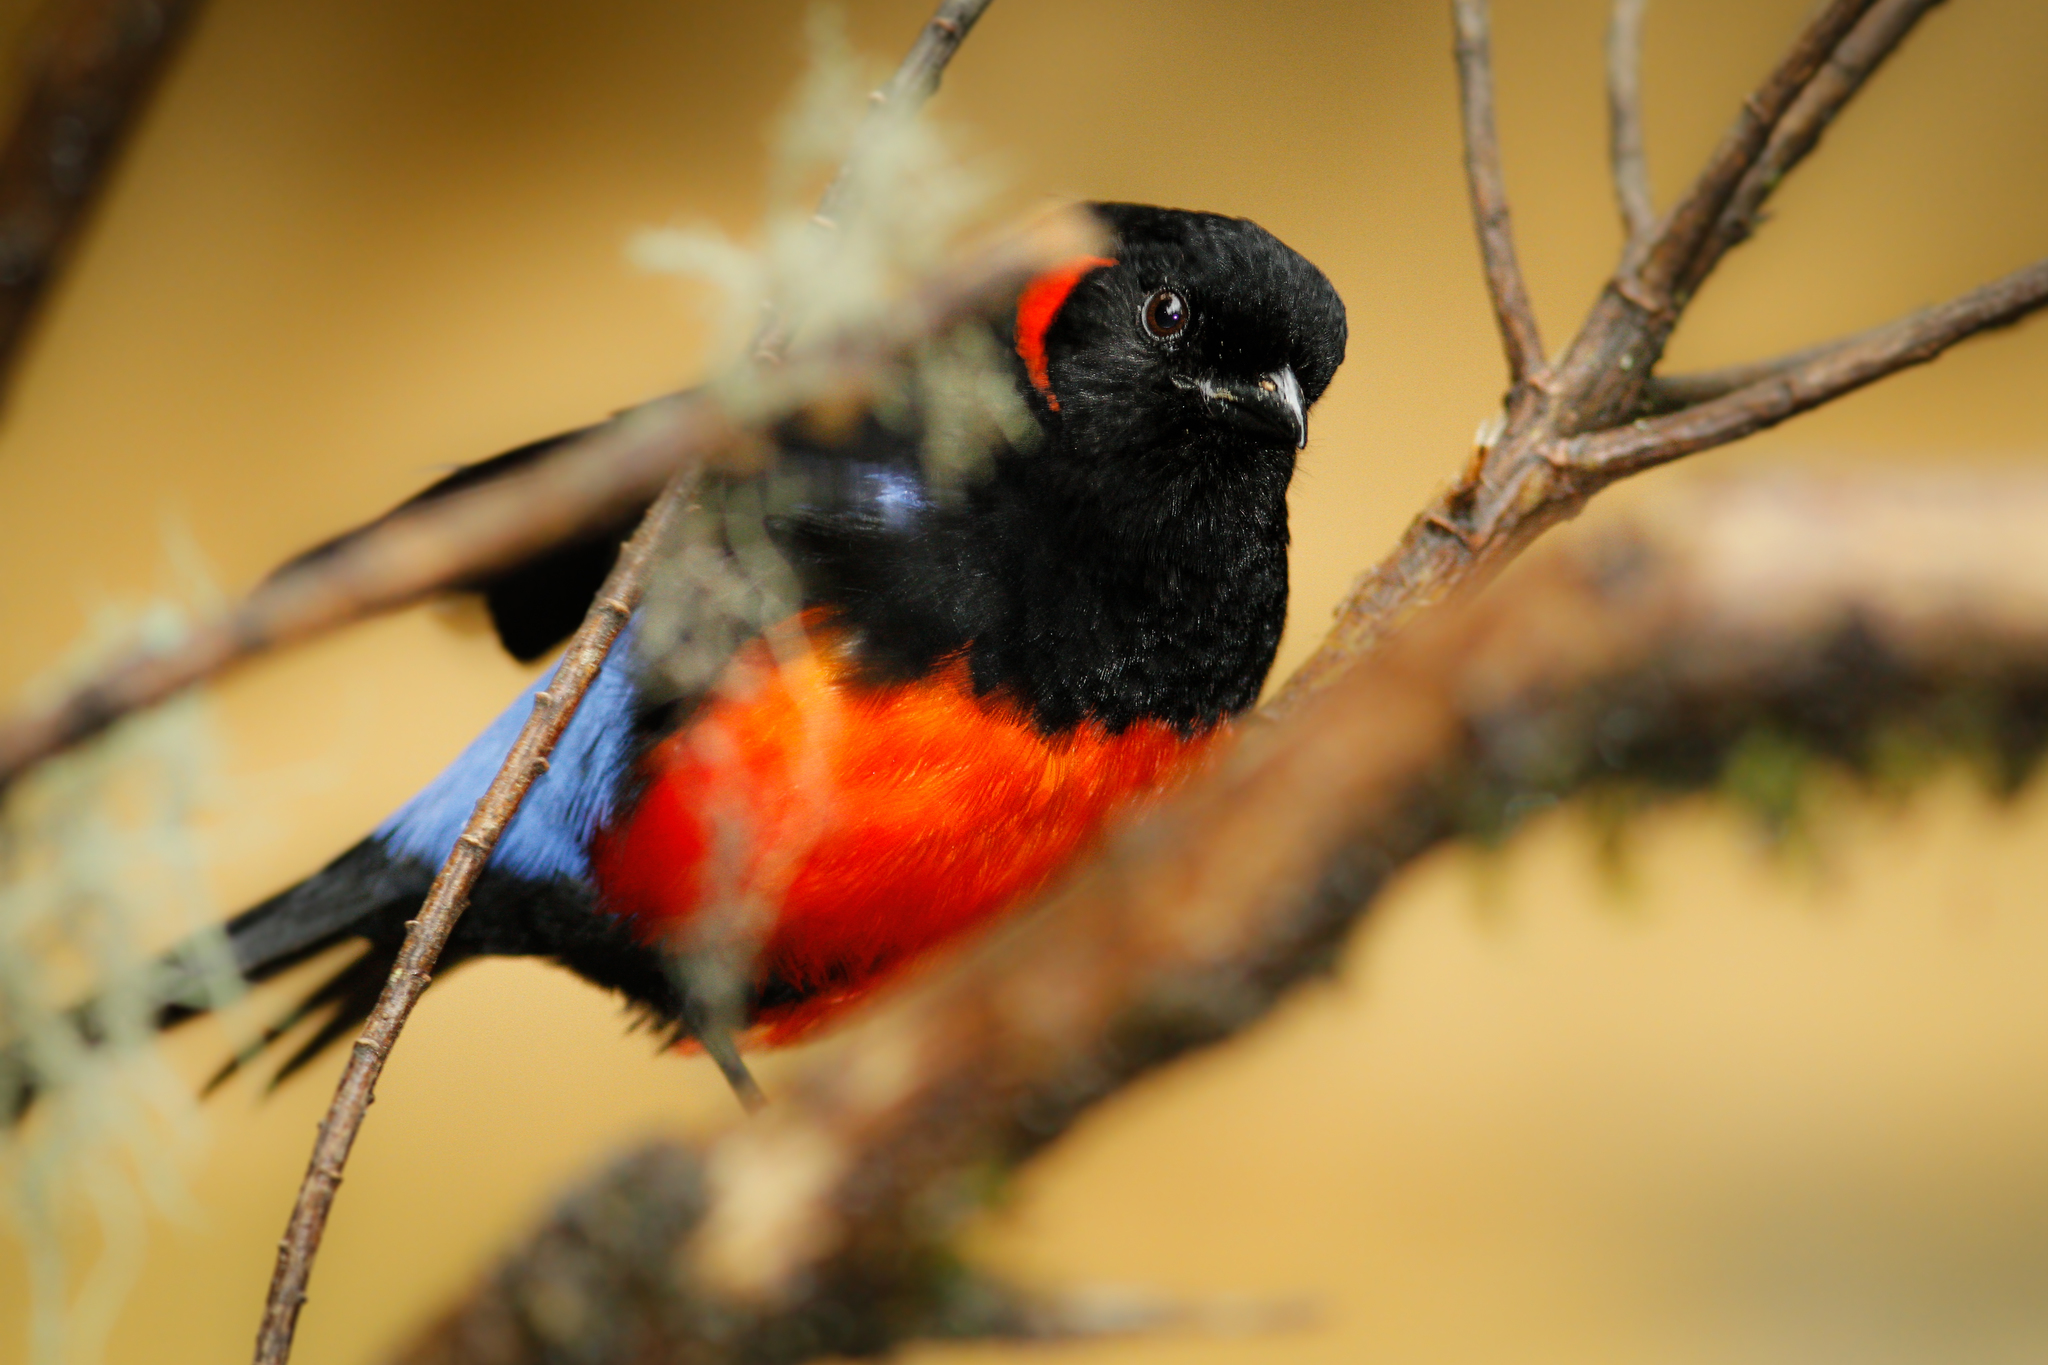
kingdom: Animalia
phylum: Chordata
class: Aves
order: Passeriformes
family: Thraupidae
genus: Anisognathus
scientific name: Anisognathus igniventris
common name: Scarlet-bellied mountain tanager
